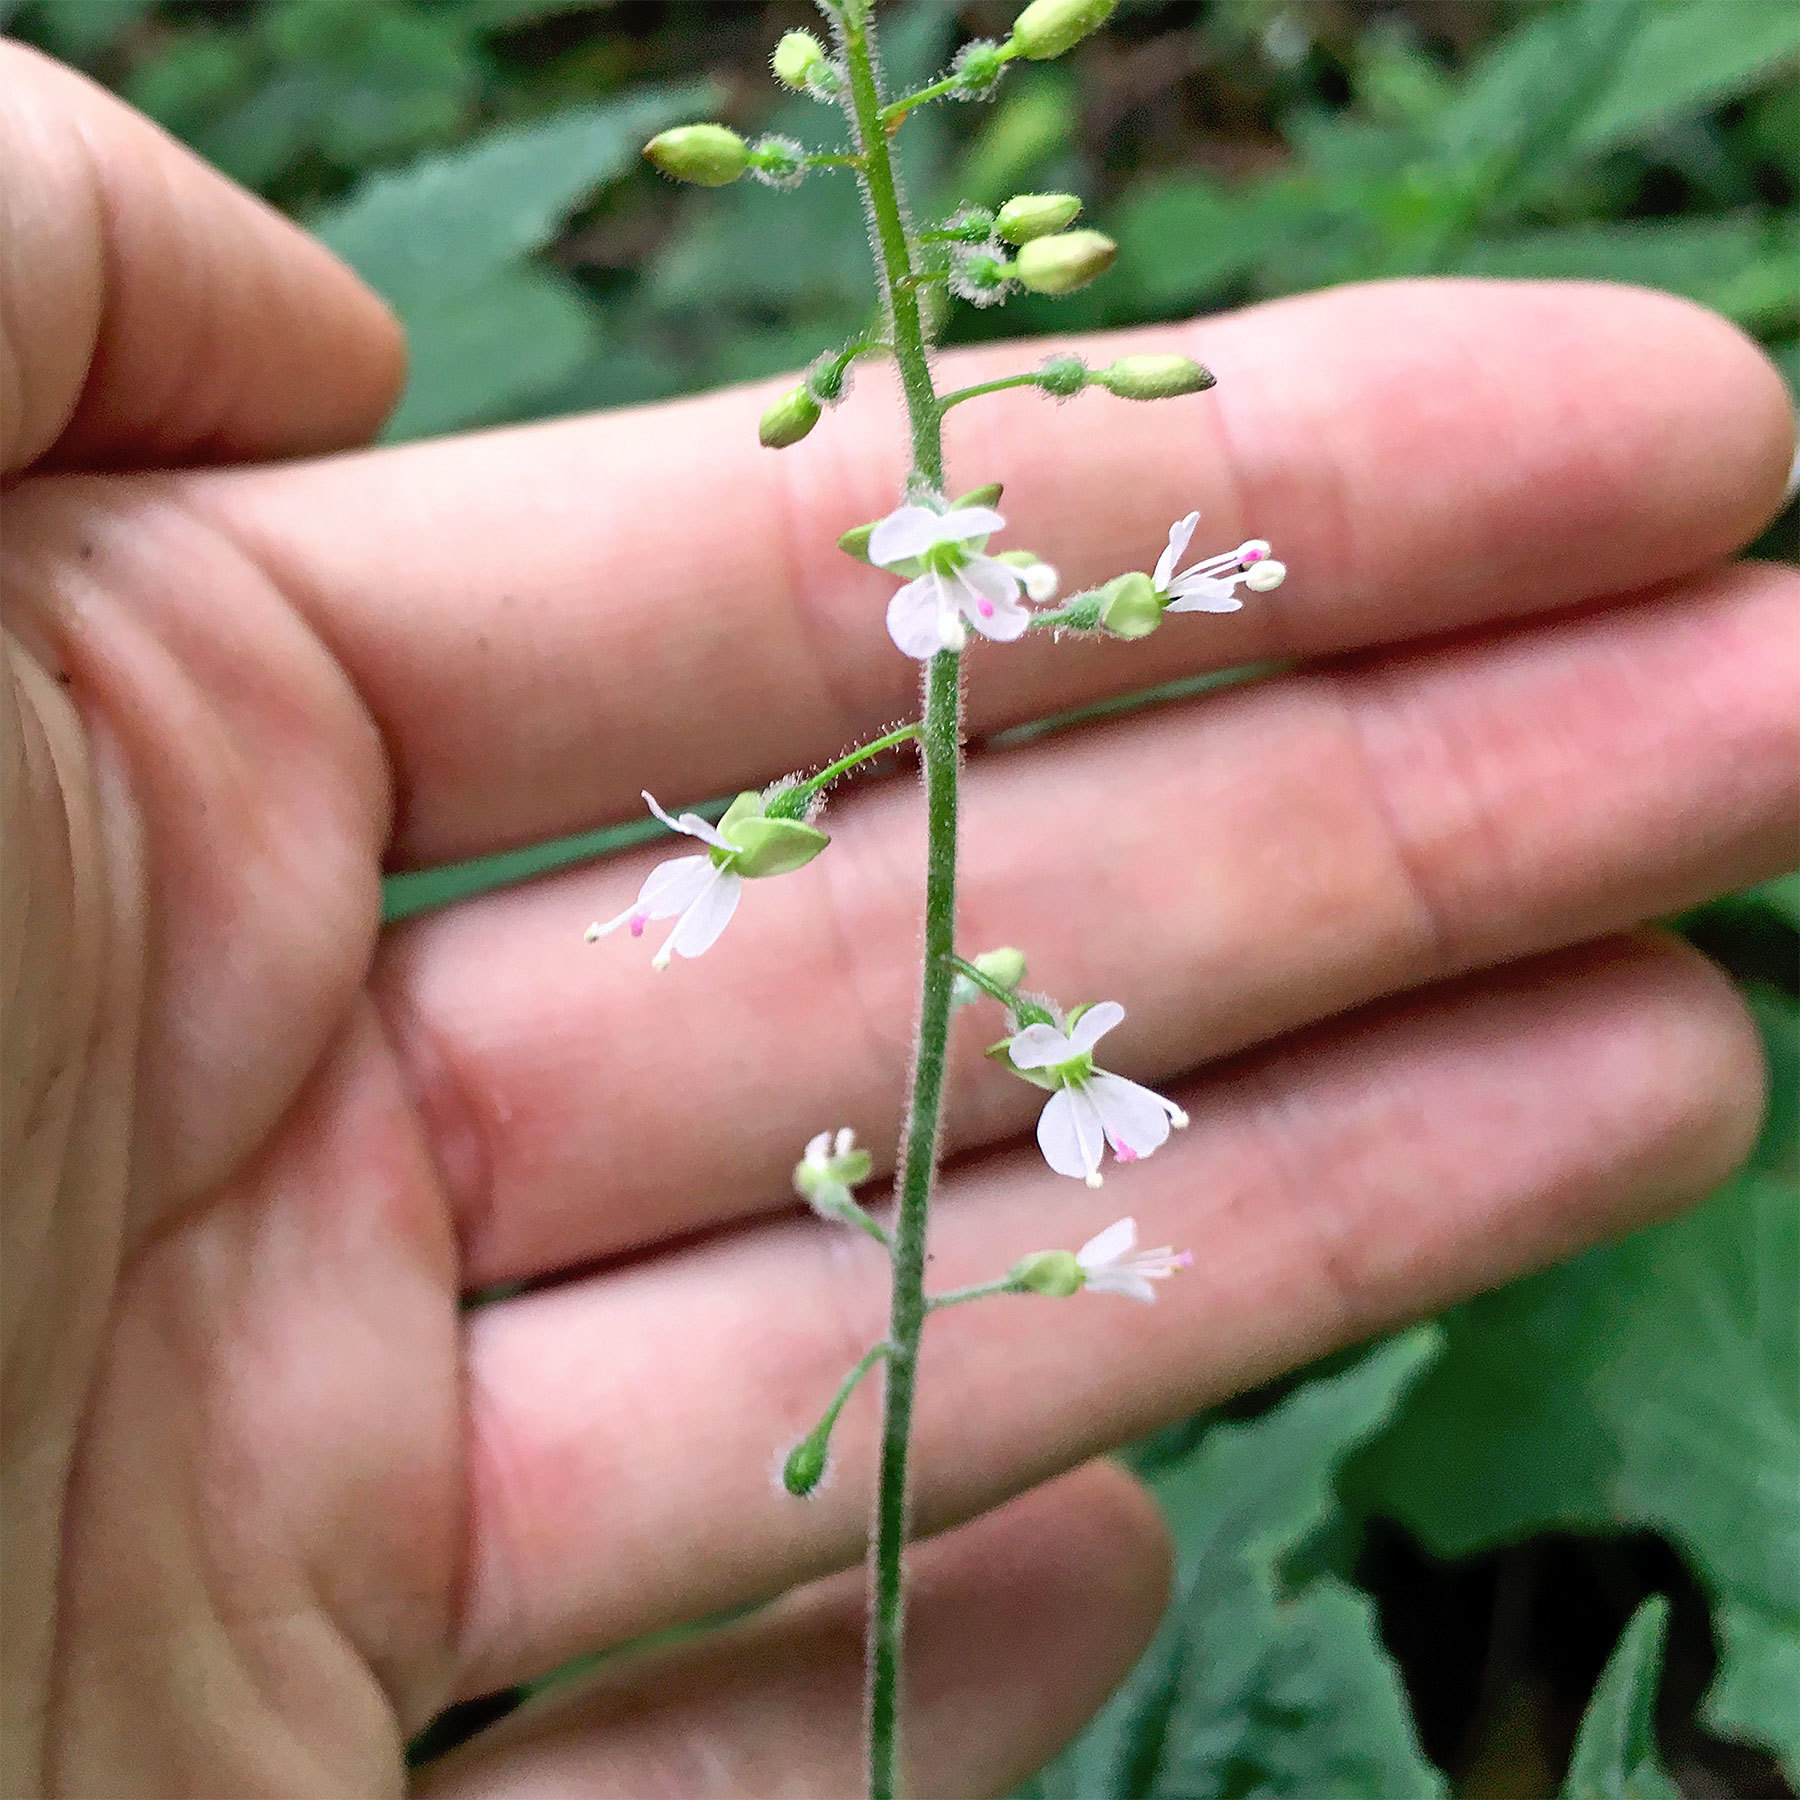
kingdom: Plantae
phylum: Tracheophyta
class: Magnoliopsida
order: Myrtales
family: Onagraceae
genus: Circaea
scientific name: Circaea lutetiana
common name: Enchanter's-nightshade
